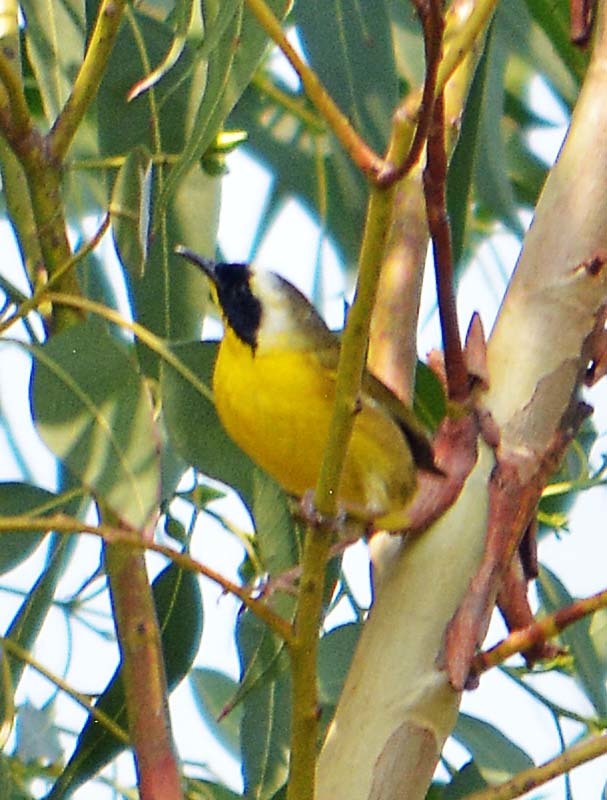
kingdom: Animalia
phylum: Chordata
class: Aves
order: Passeriformes
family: Parulidae
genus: Geothlypis
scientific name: Geothlypis trichas
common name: Common yellowthroat
